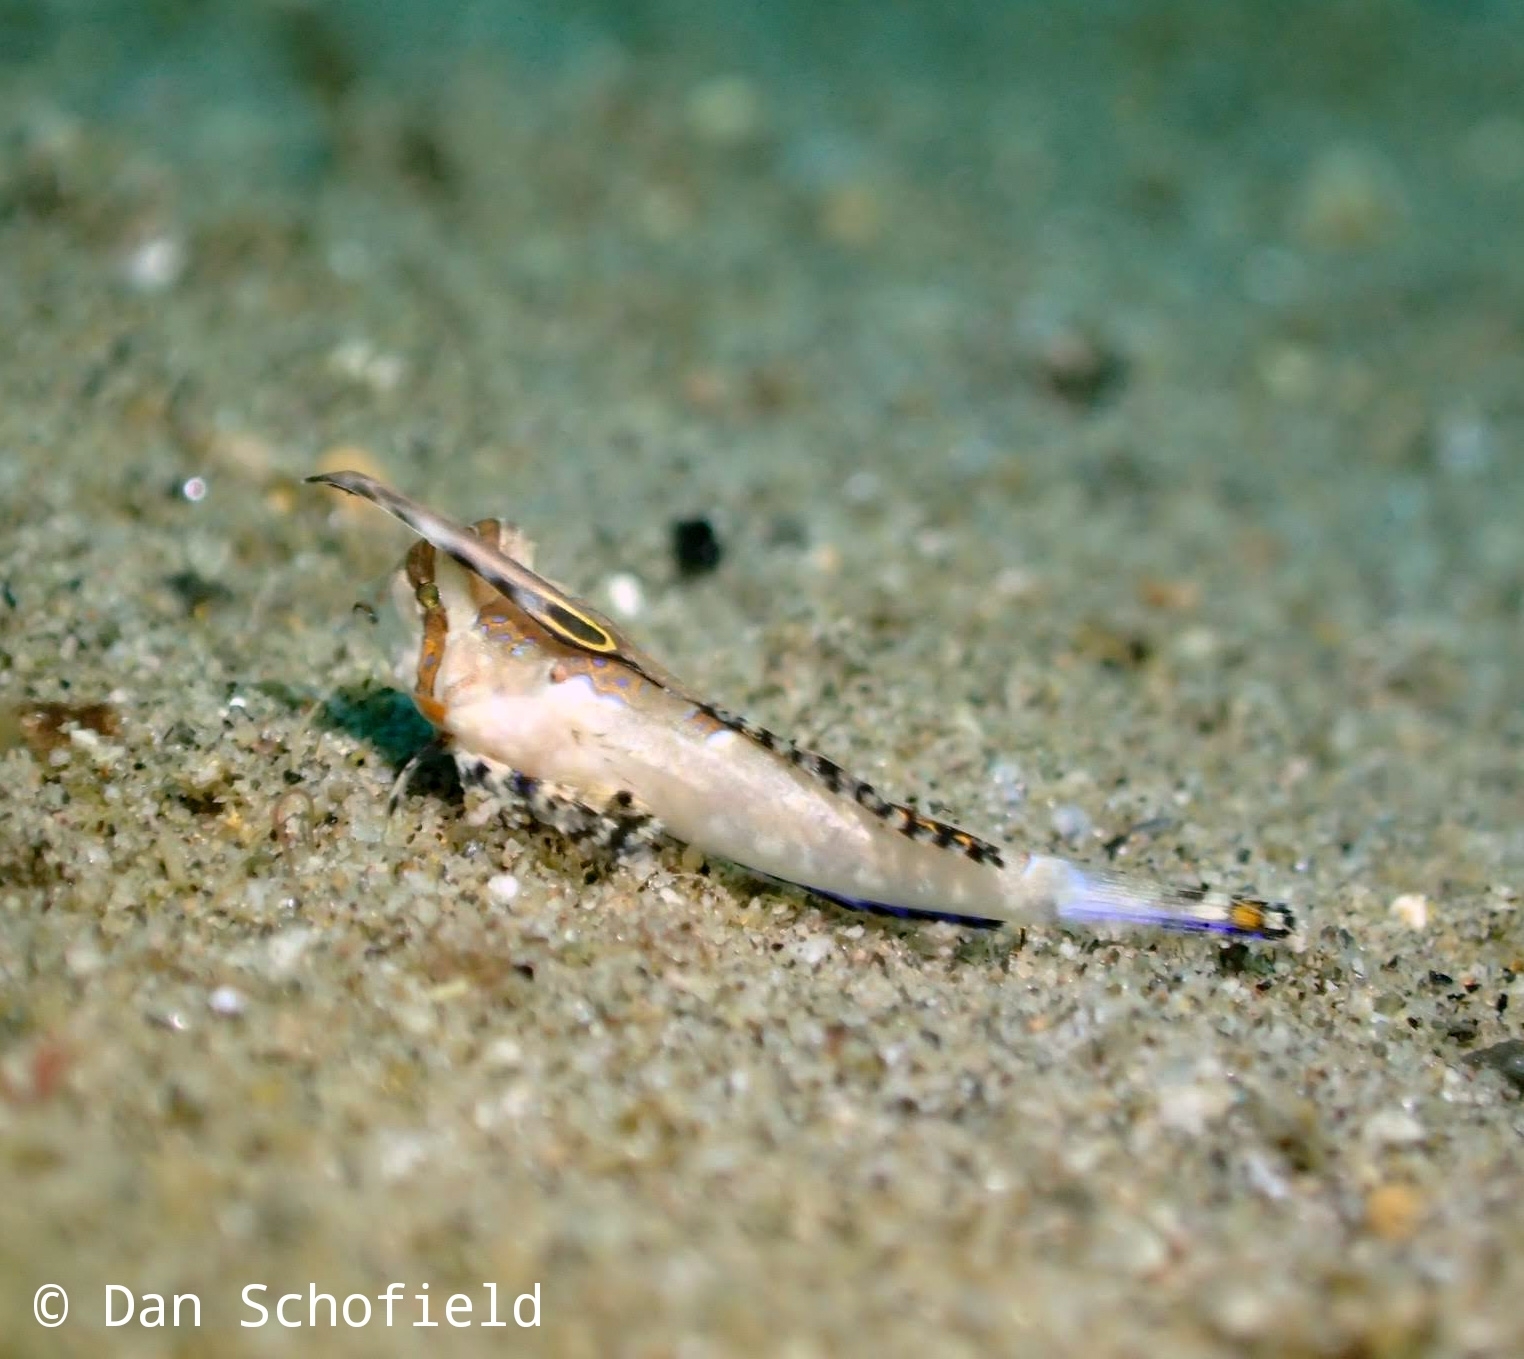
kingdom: Animalia
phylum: Chordata
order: Perciformes
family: Callionymidae
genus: Dactylopus
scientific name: Dactylopus kuiteri
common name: Kuiter's dragonet
